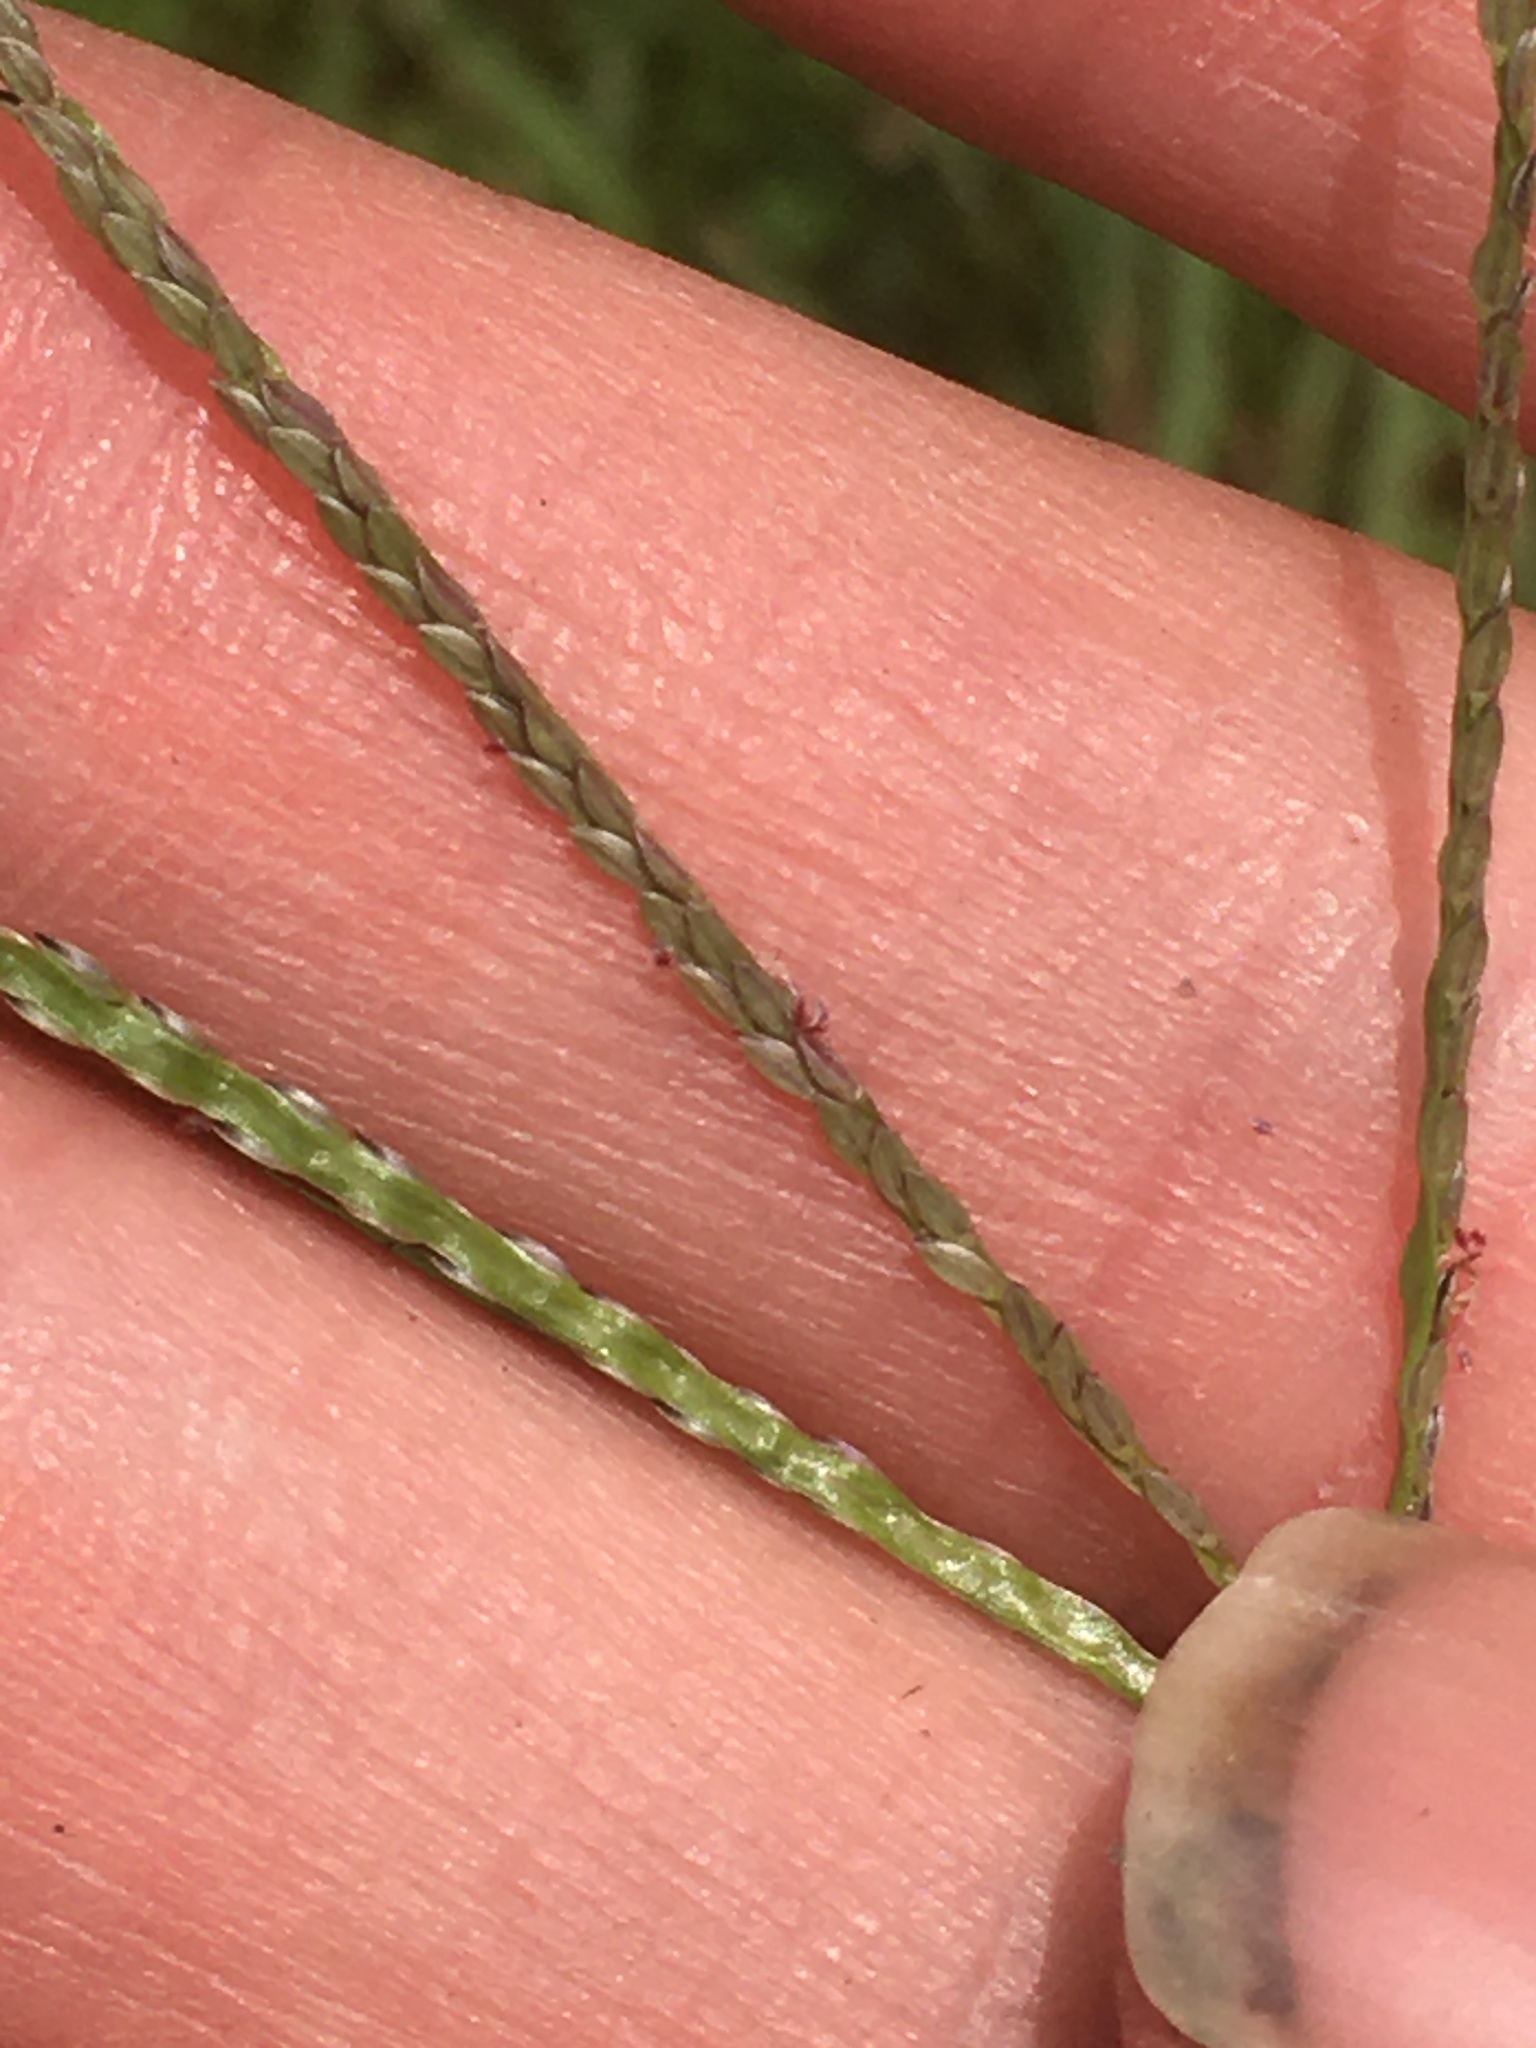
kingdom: Plantae
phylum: Tracheophyta
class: Liliopsida
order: Poales
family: Poaceae
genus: Digitaria
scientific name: Digitaria ischaemum
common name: Smooth crabgrass
